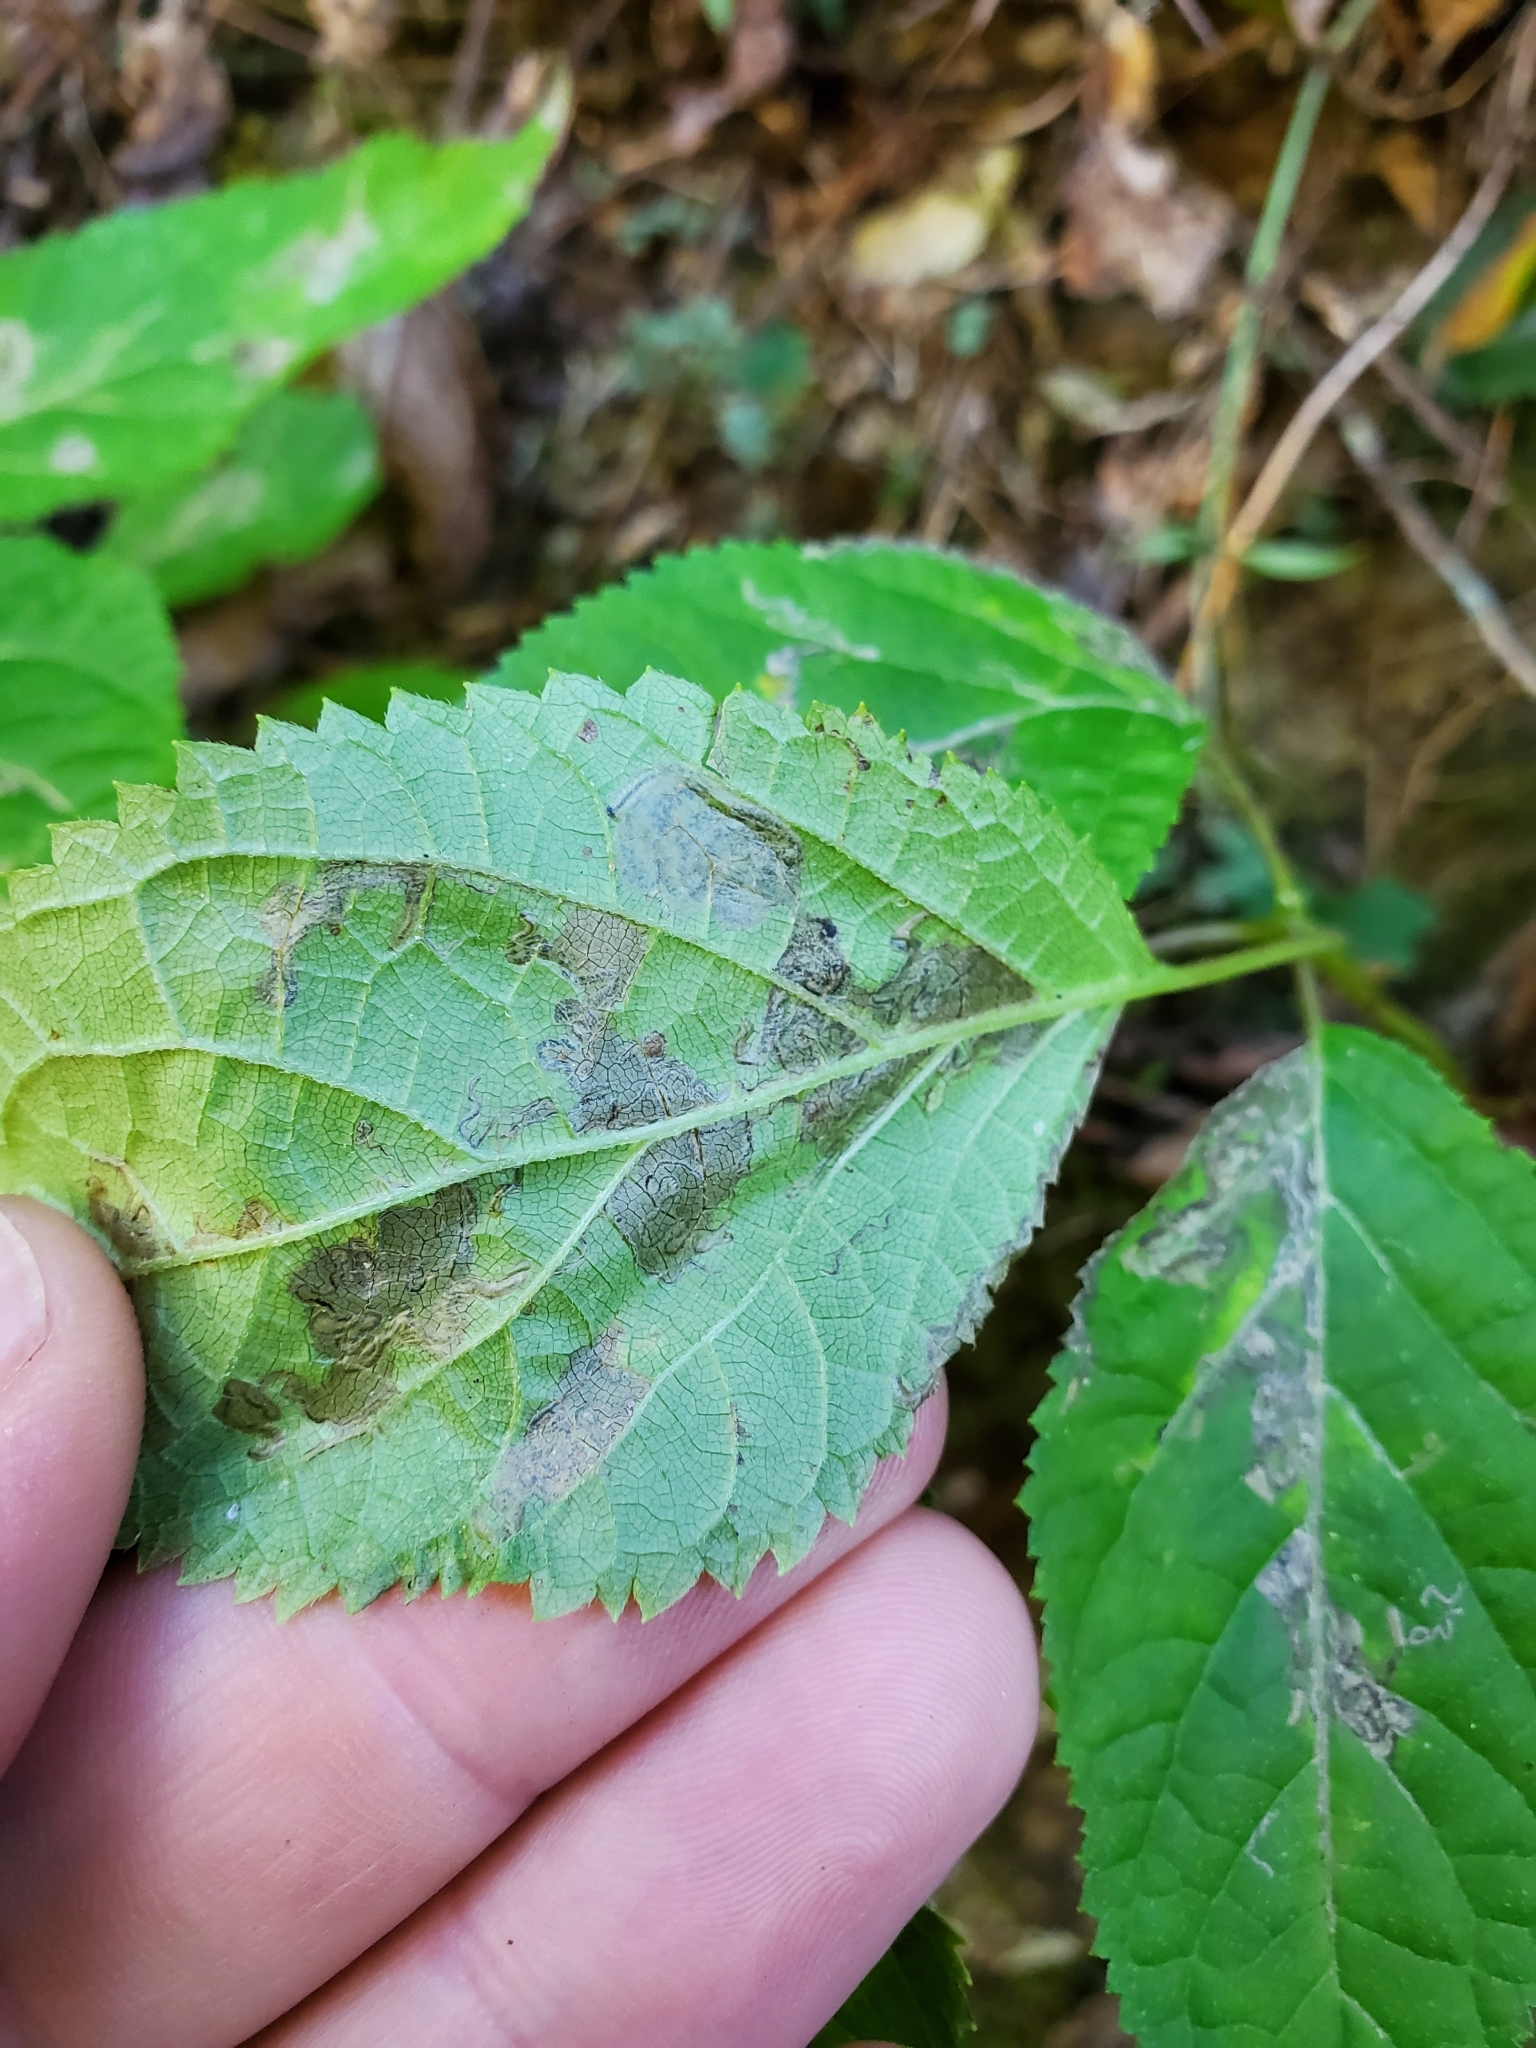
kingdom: Animalia
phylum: Arthropoda
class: Insecta
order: Lepidoptera
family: Heliozelidae
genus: Aspilanta
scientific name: Aspilanta hydrangaeella
